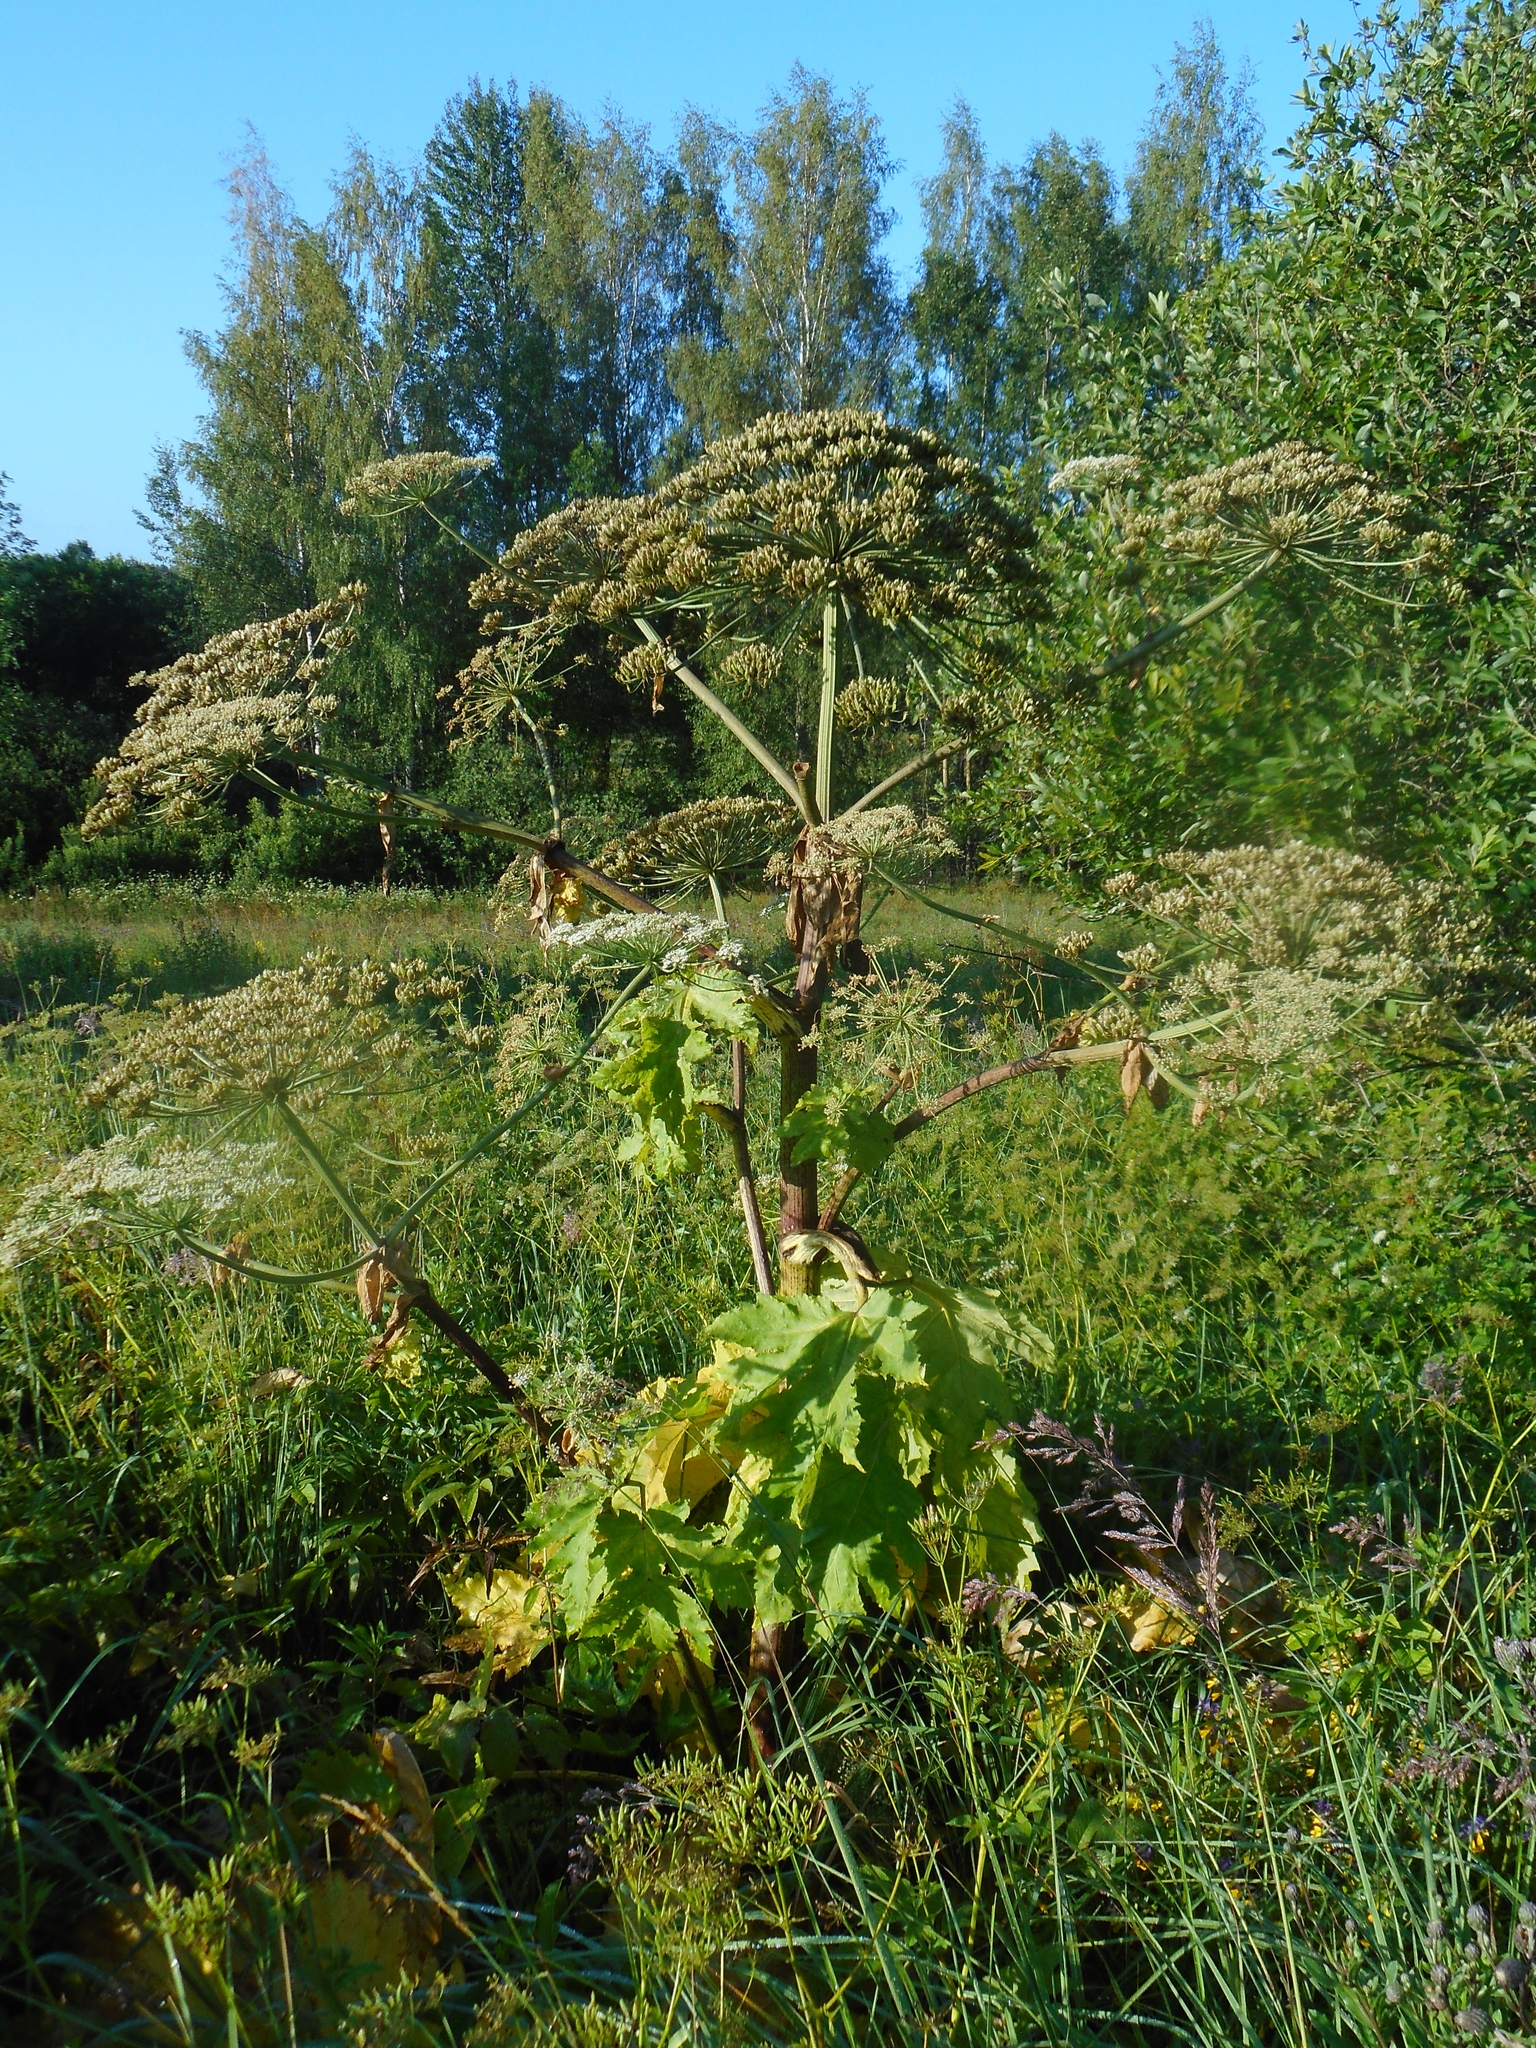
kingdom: Plantae
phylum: Tracheophyta
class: Magnoliopsida
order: Apiales
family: Apiaceae
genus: Heracleum
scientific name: Heracleum sosnowskyi
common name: Sosnowsky's hogweed
